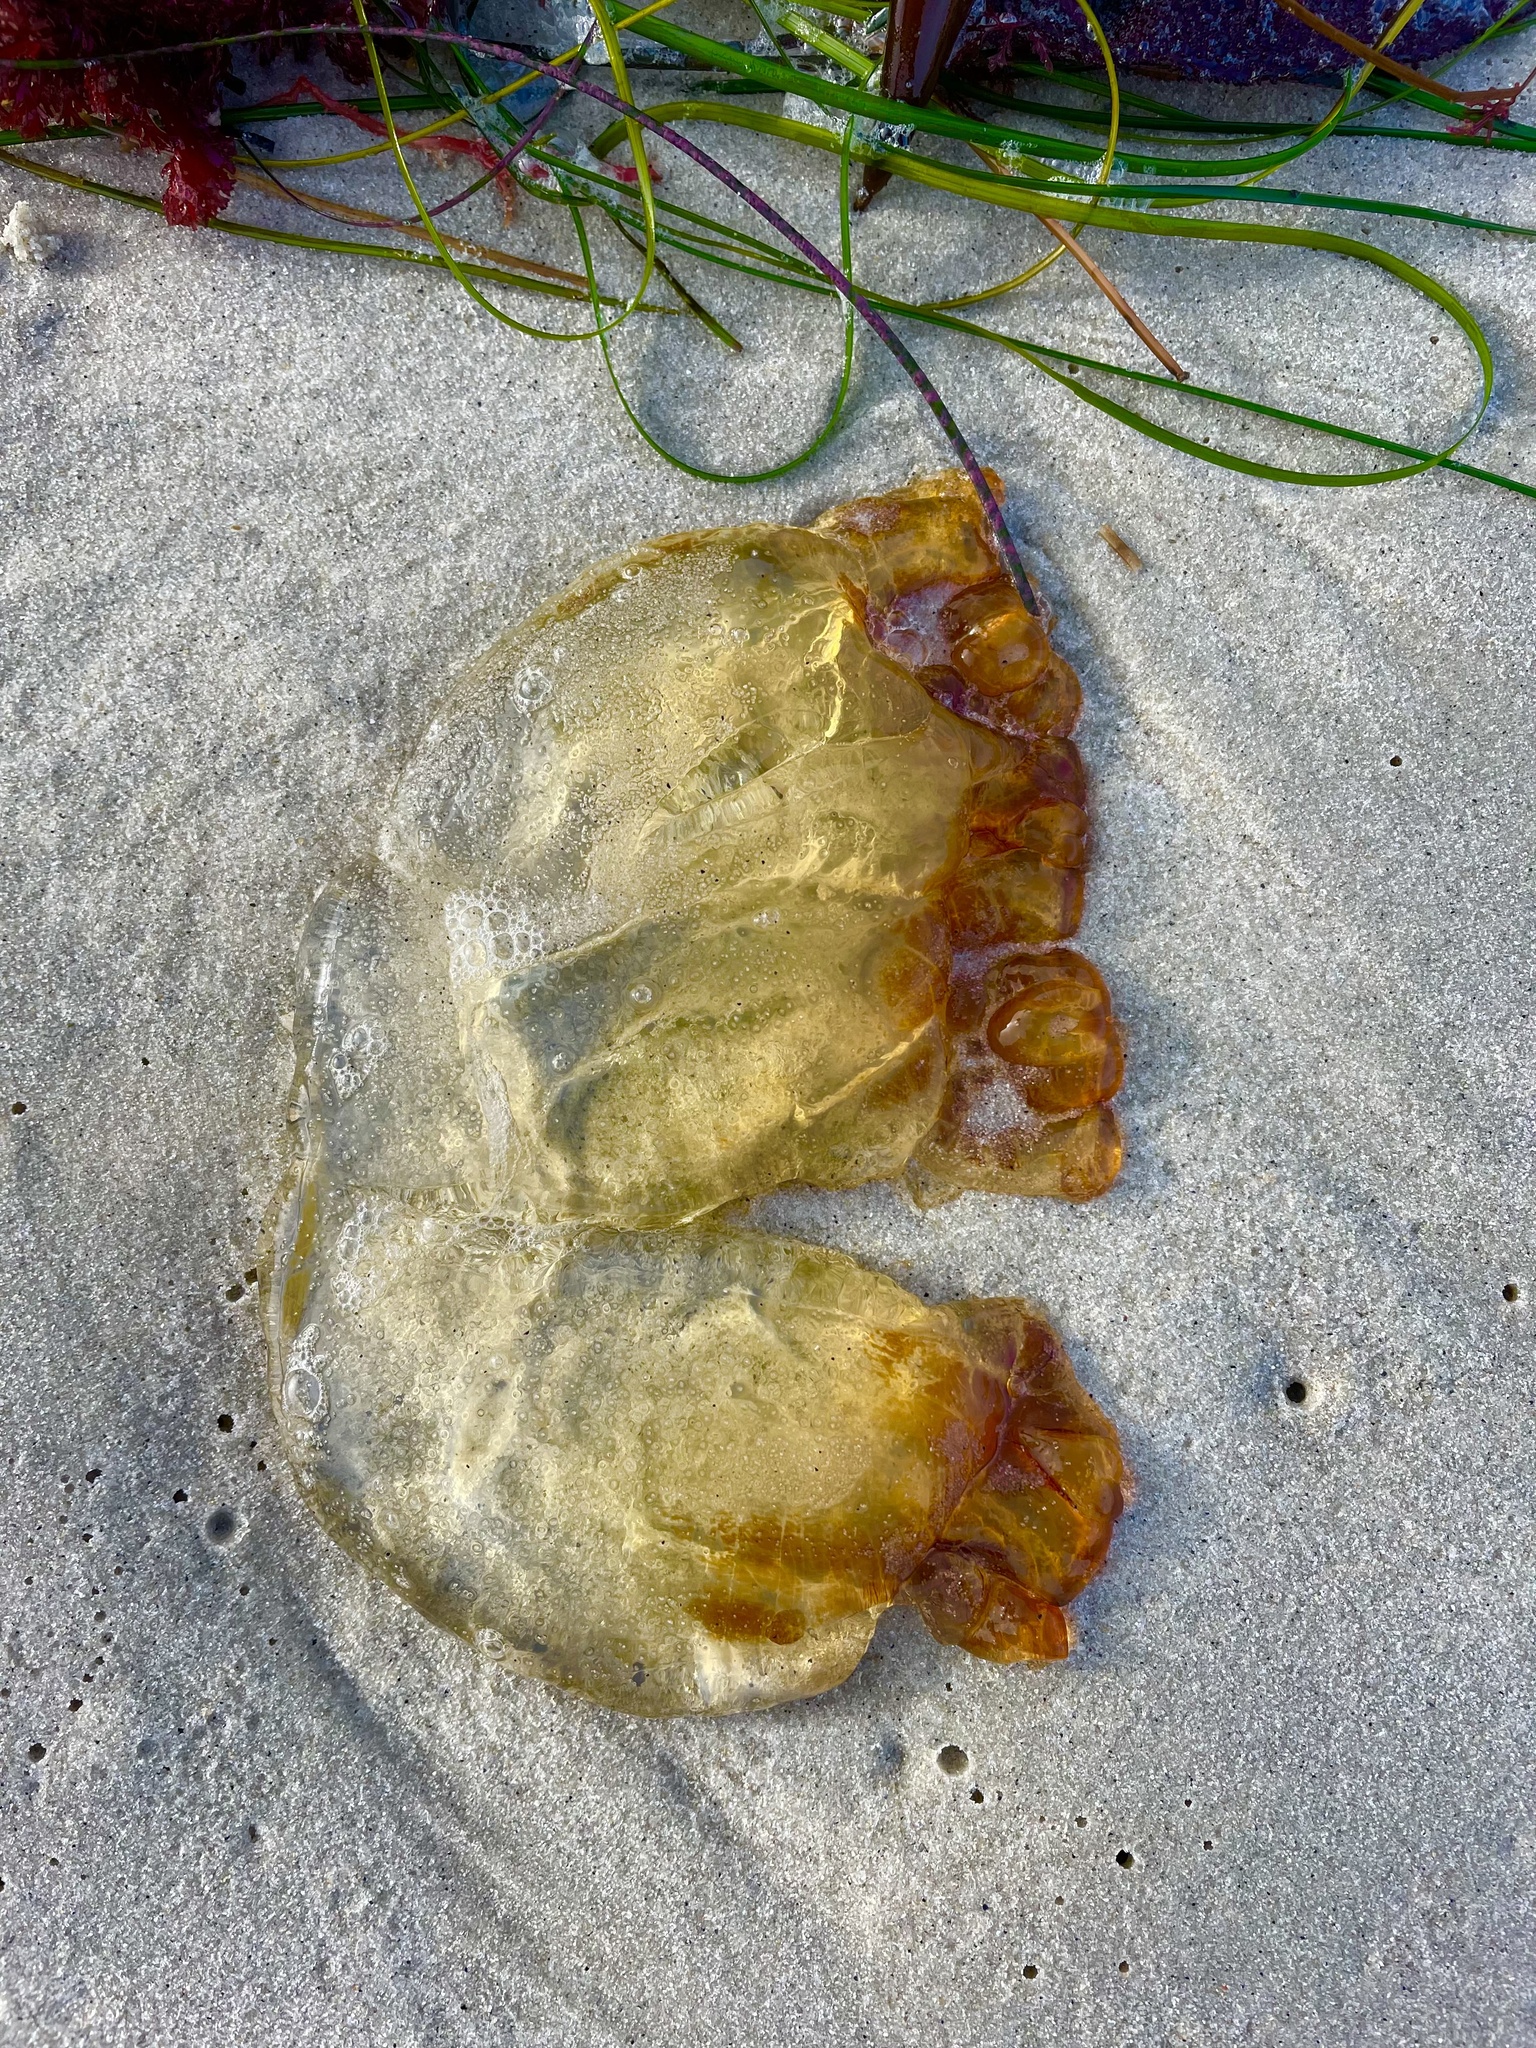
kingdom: Animalia
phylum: Cnidaria
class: Scyphozoa
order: Semaeostomeae
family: Pelagiidae
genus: Chrysaora
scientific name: Chrysaora fuscescens
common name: Sea nettle
